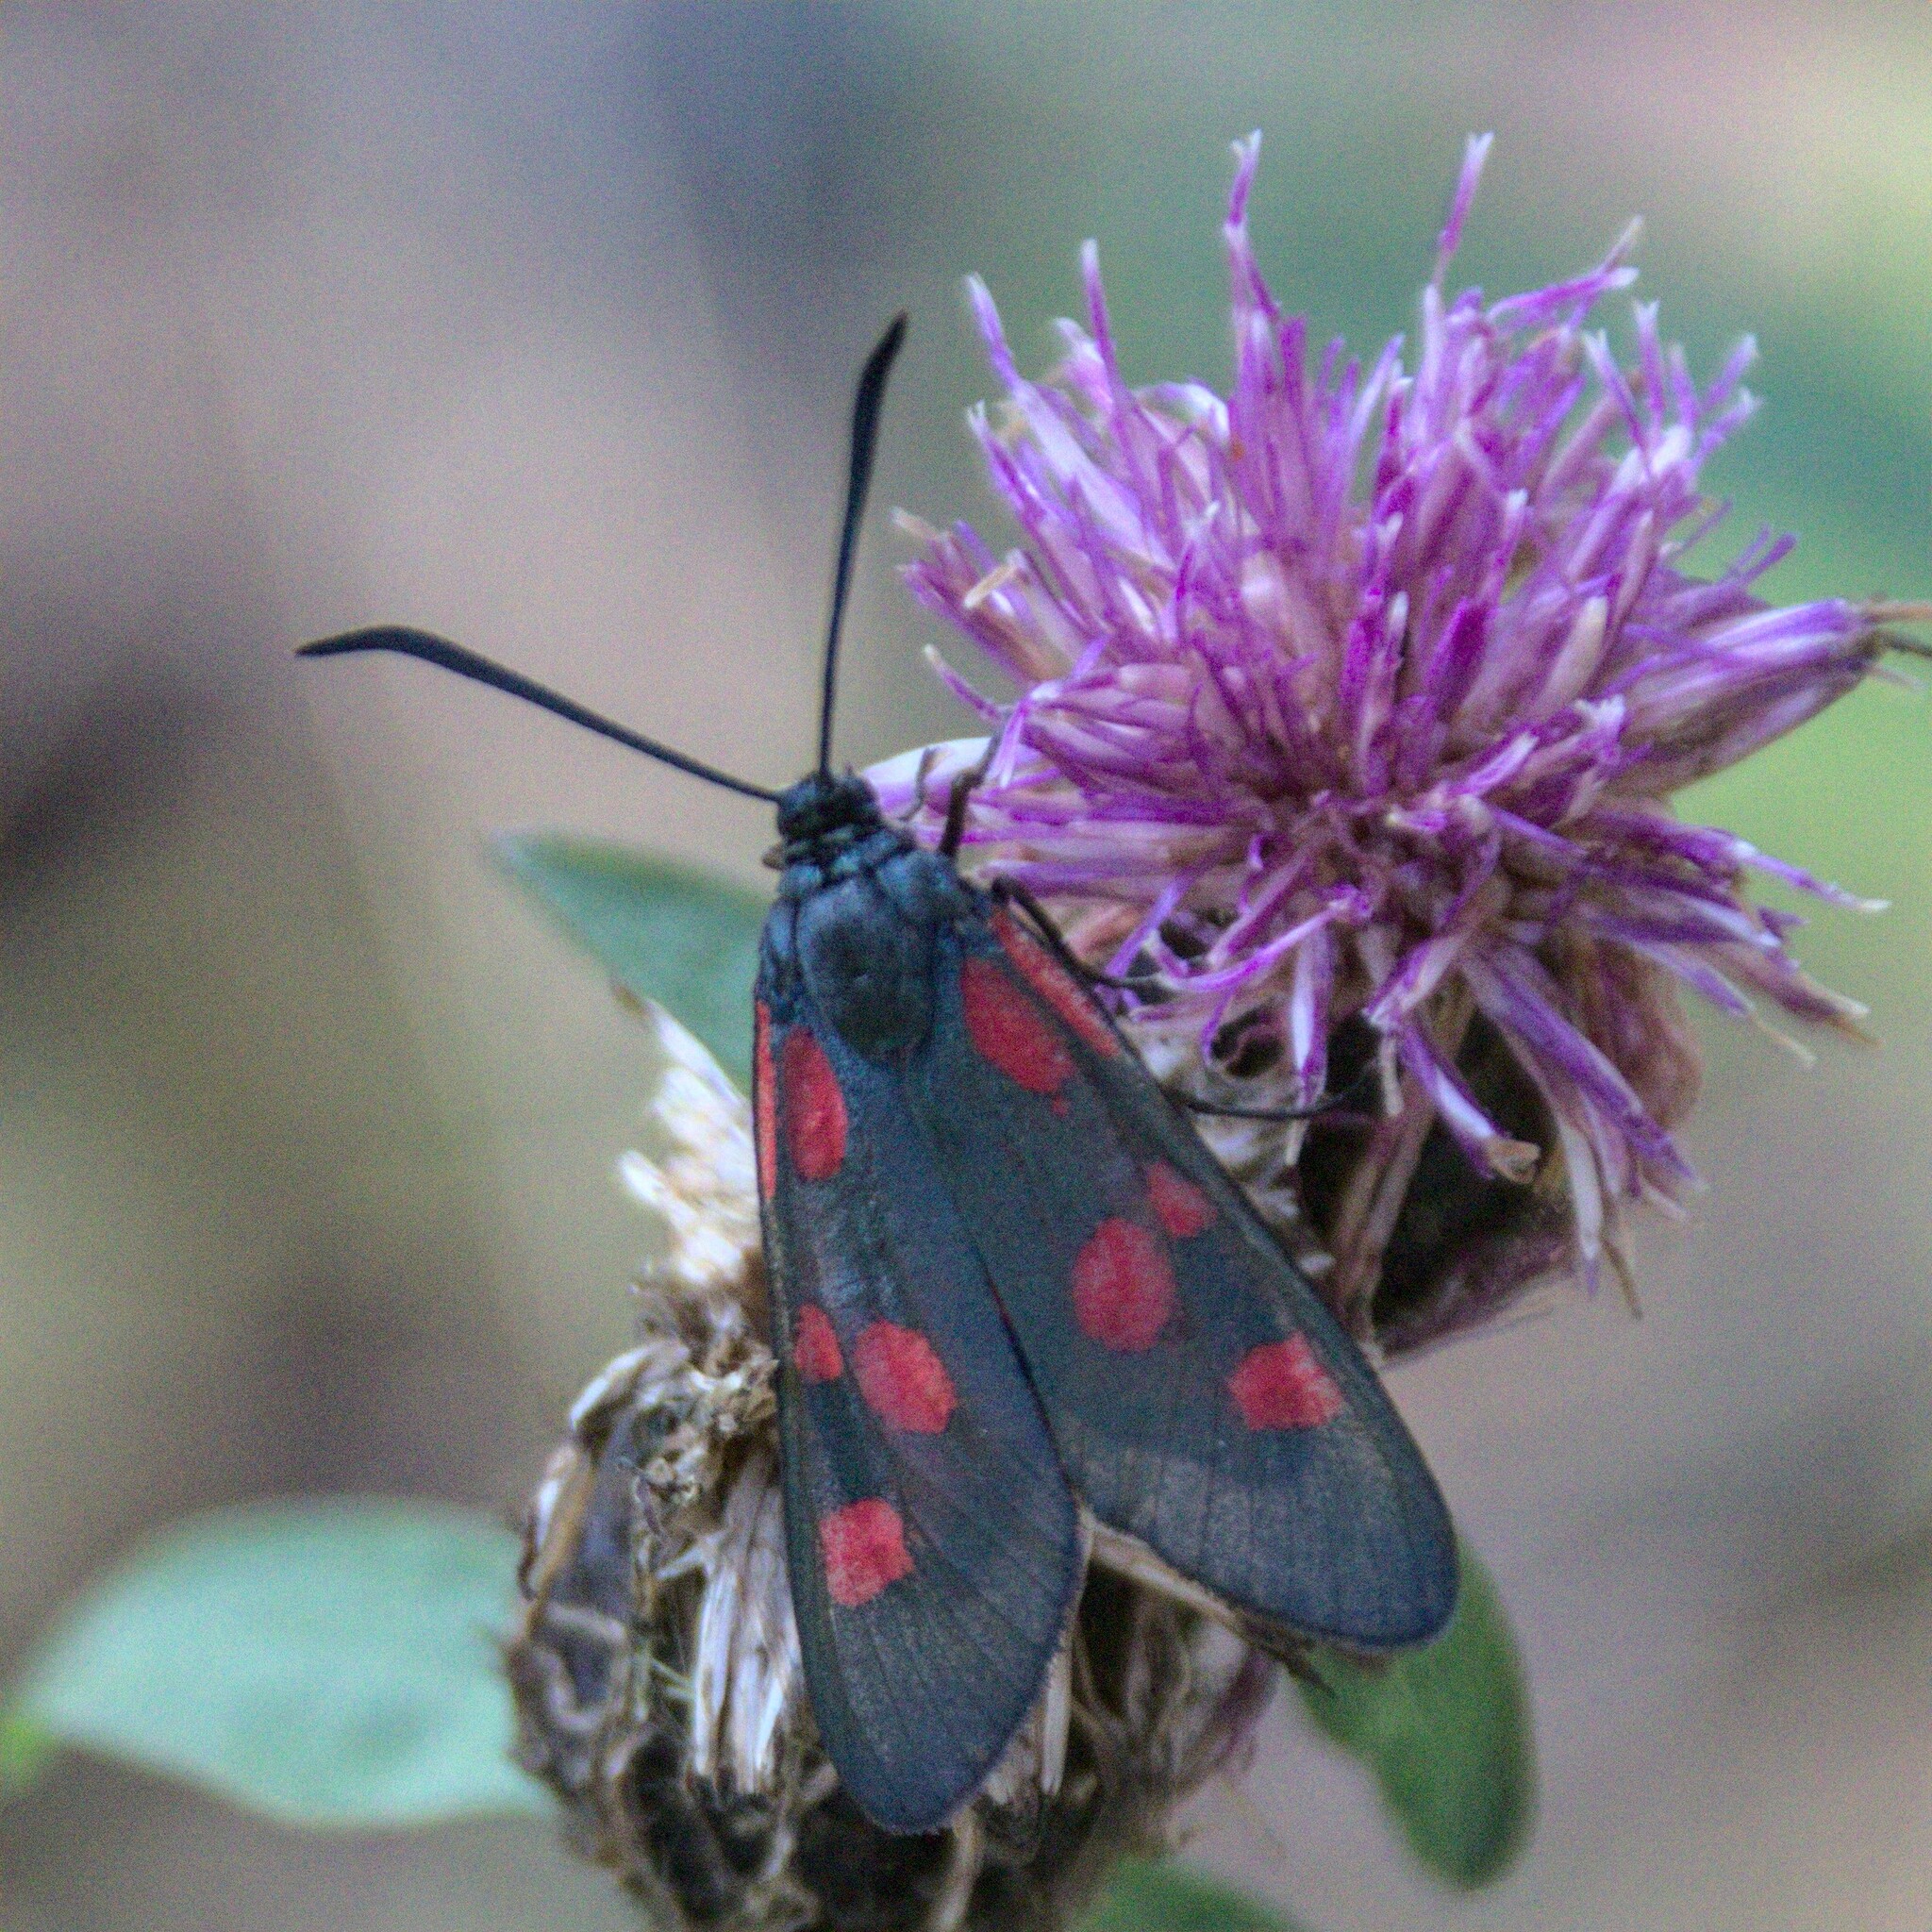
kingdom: Animalia
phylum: Arthropoda
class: Insecta
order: Lepidoptera
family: Zygaenidae
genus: Zygaena
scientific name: Zygaena lonicerae
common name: Narrow-bordered five-spot burnet
